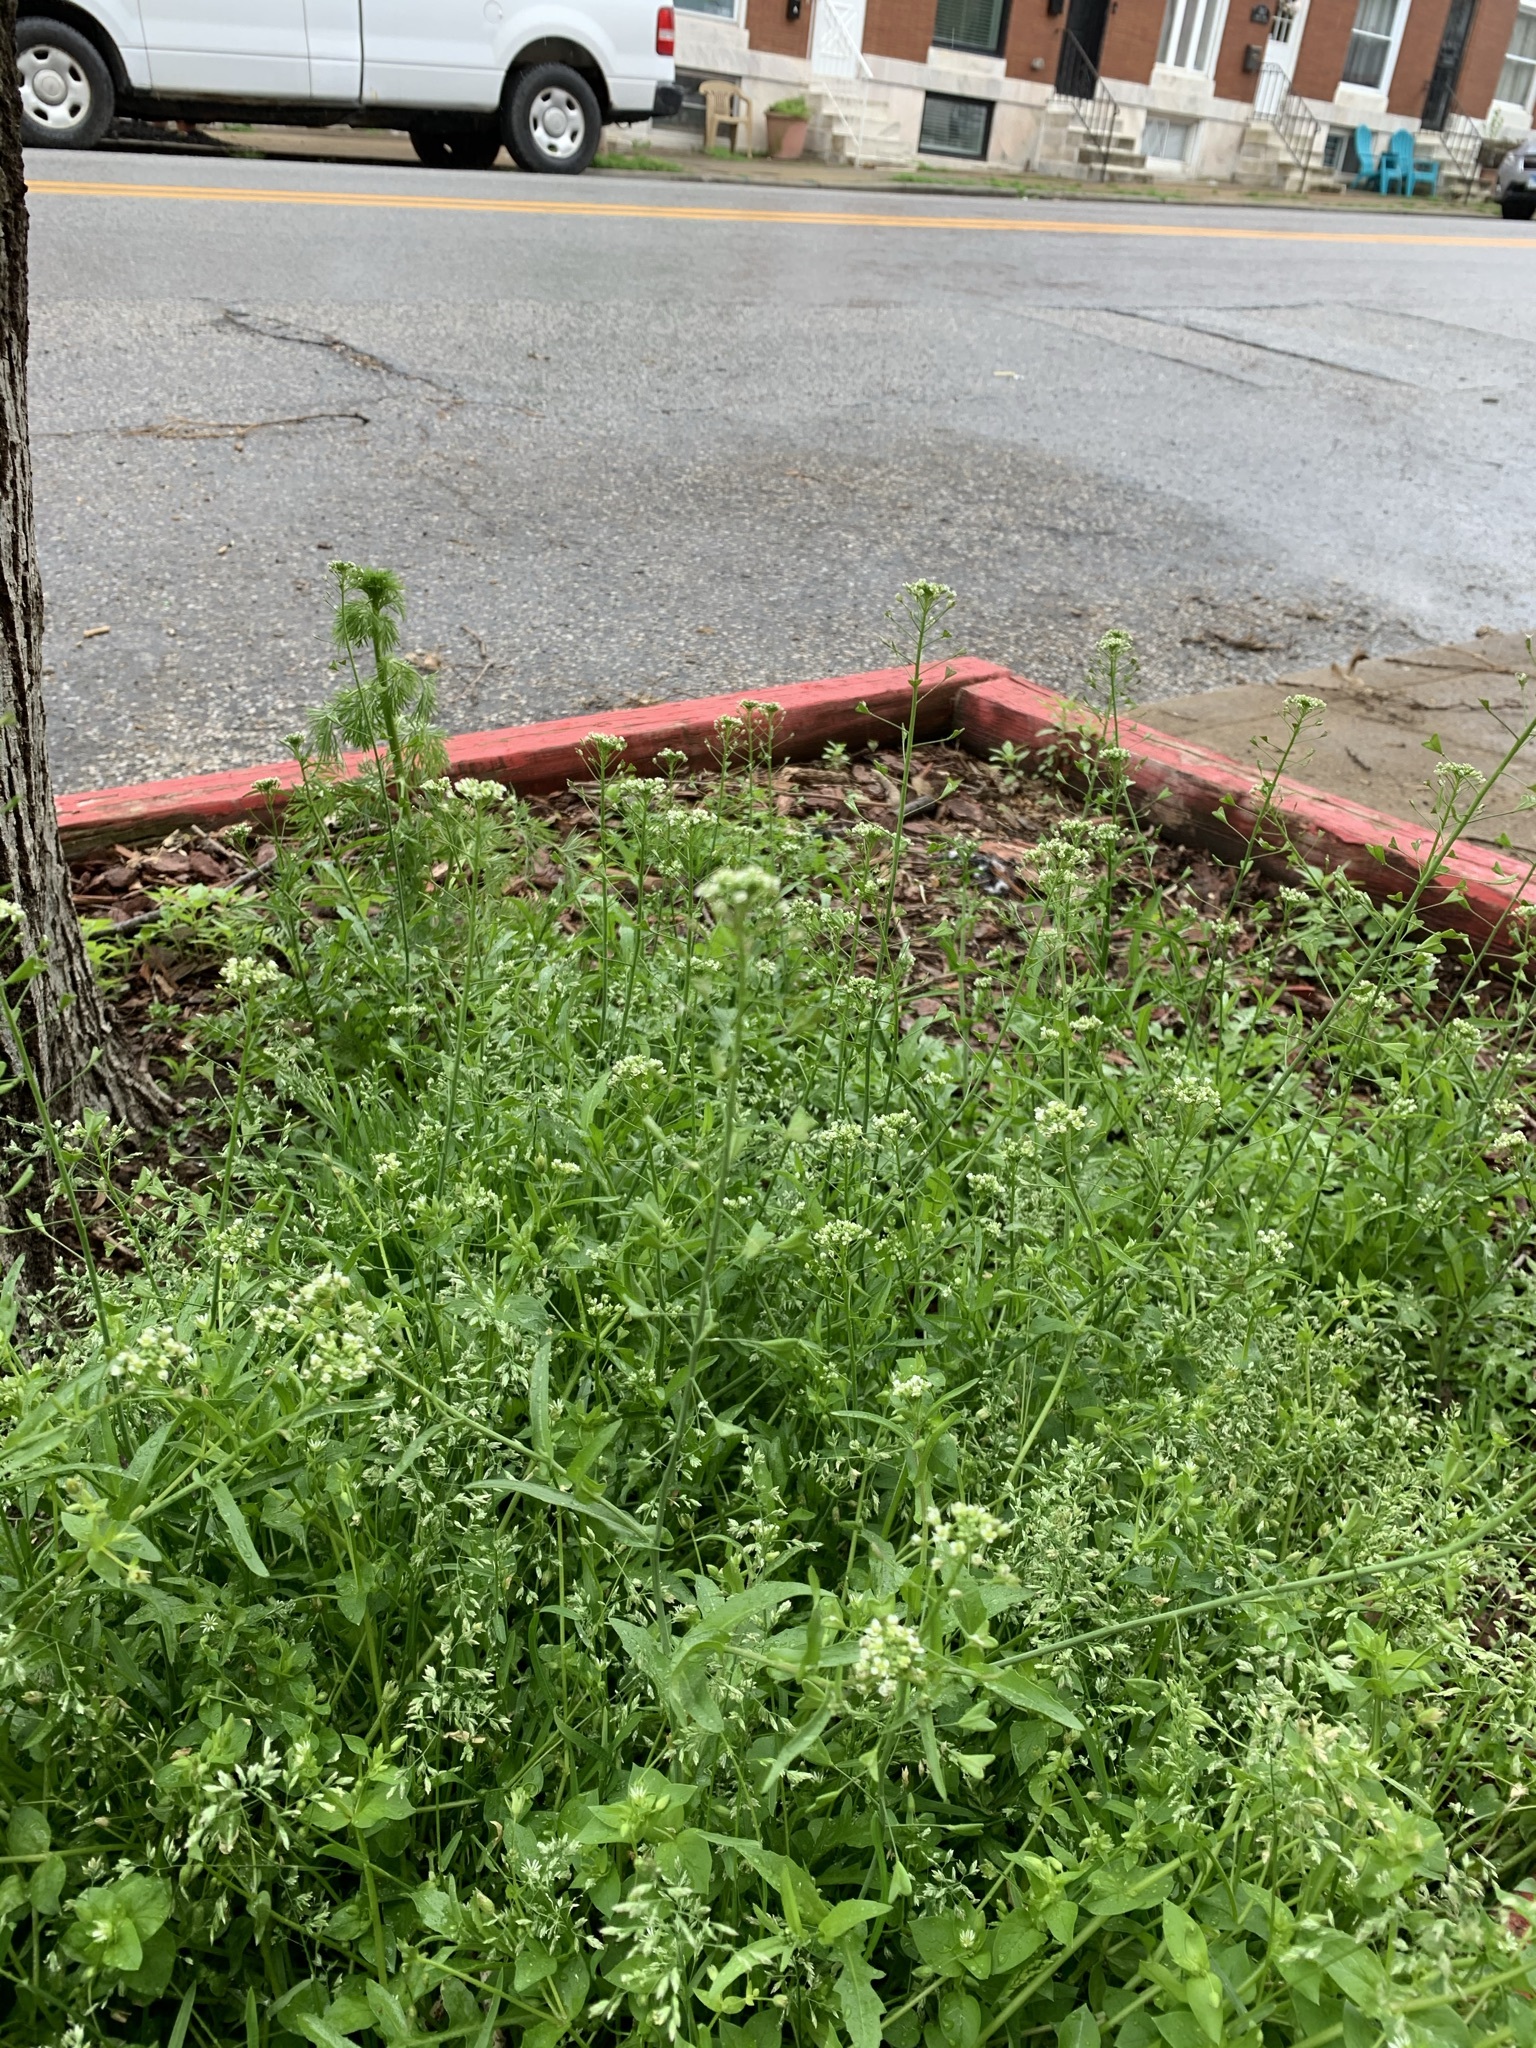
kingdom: Plantae
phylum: Tracheophyta
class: Magnoliopsida
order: Brassicales
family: Brassicaceae
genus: Capsella
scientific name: Capsella bursa-pastoris
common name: Shepherd's purse
